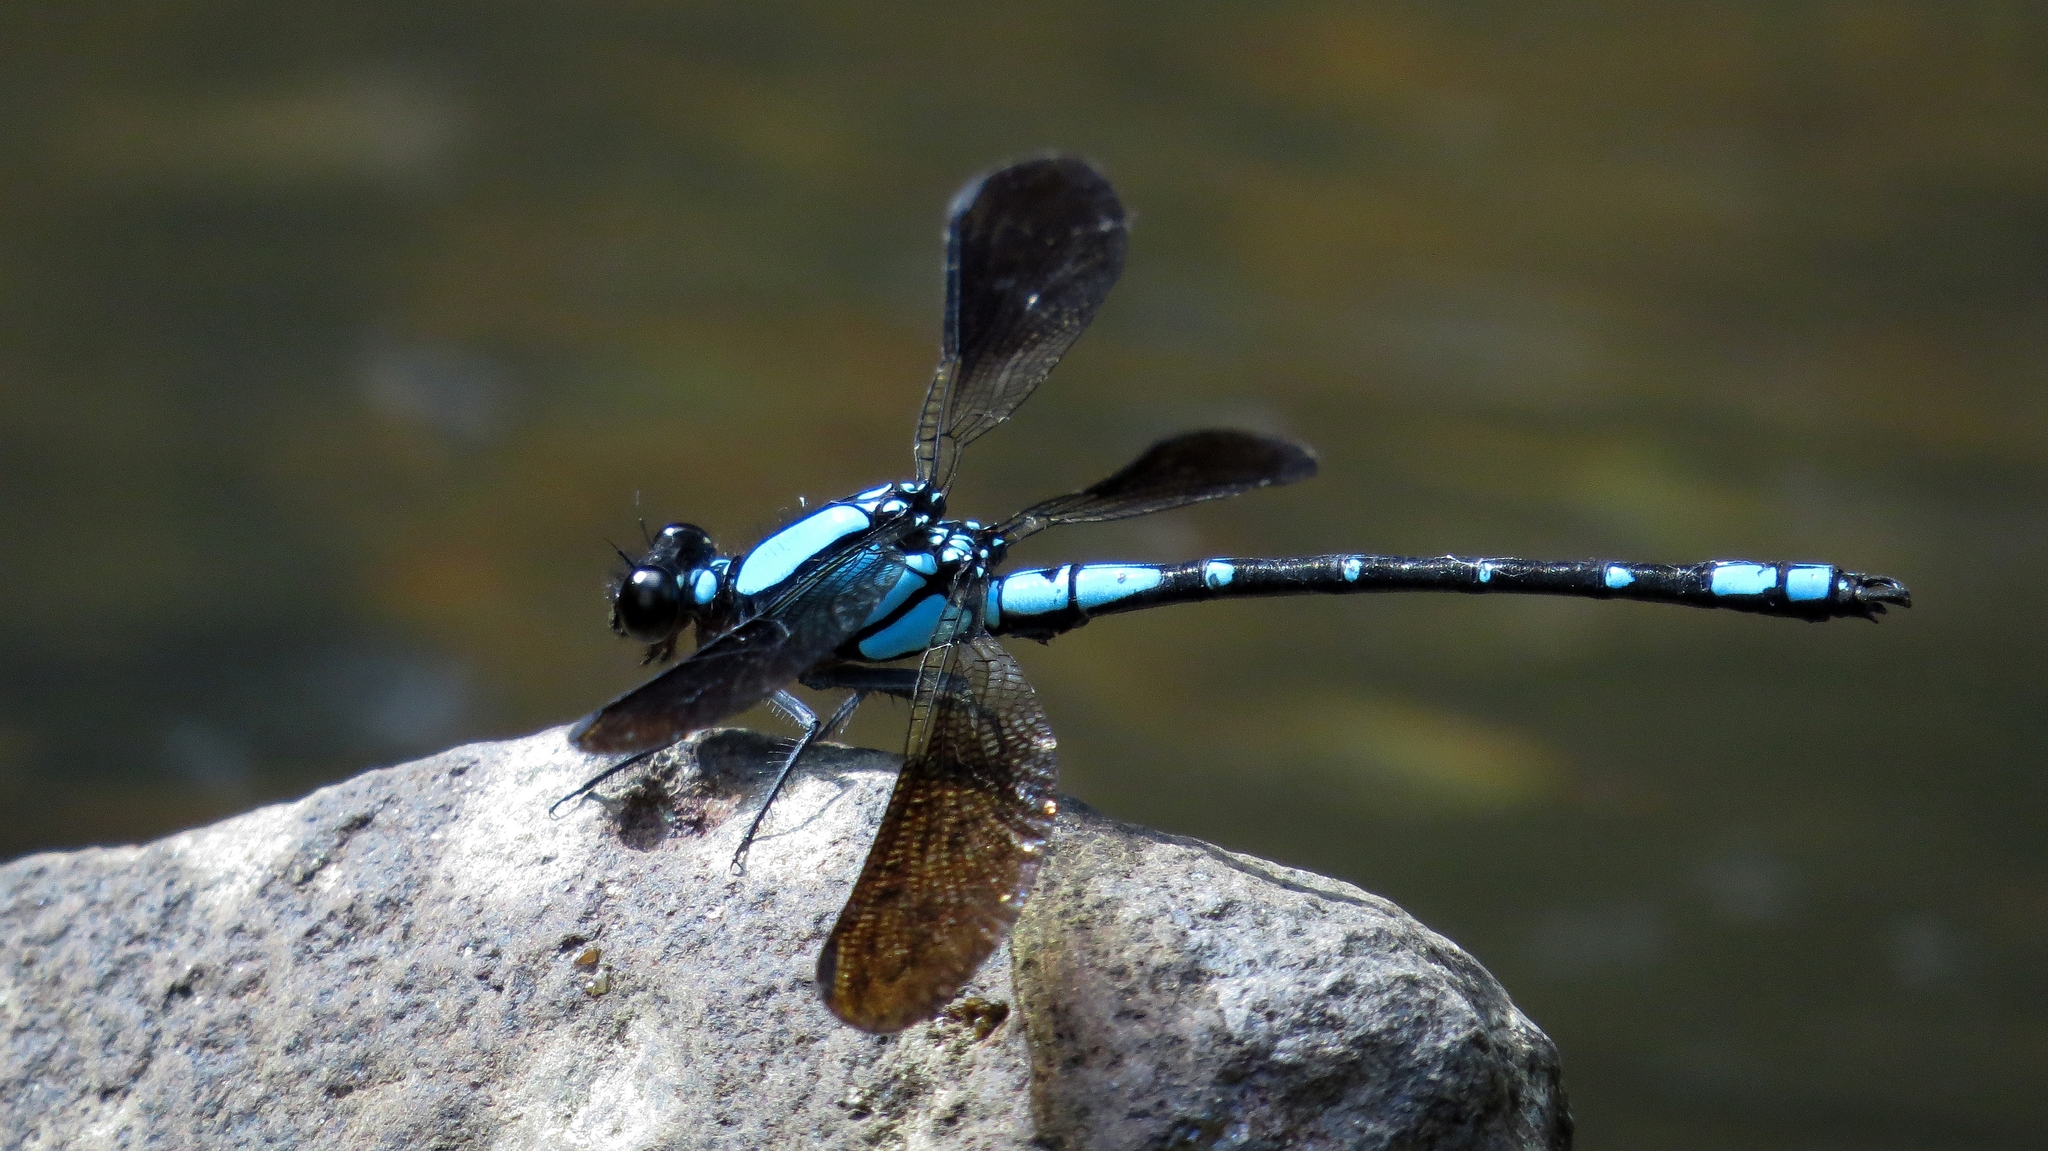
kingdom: Animalia
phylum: Arthropoda
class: Insecta
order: Odonata
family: Lestoideidae
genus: Diphlebia
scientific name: Diphlebia coerulescens
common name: Sapphire rockmaster
